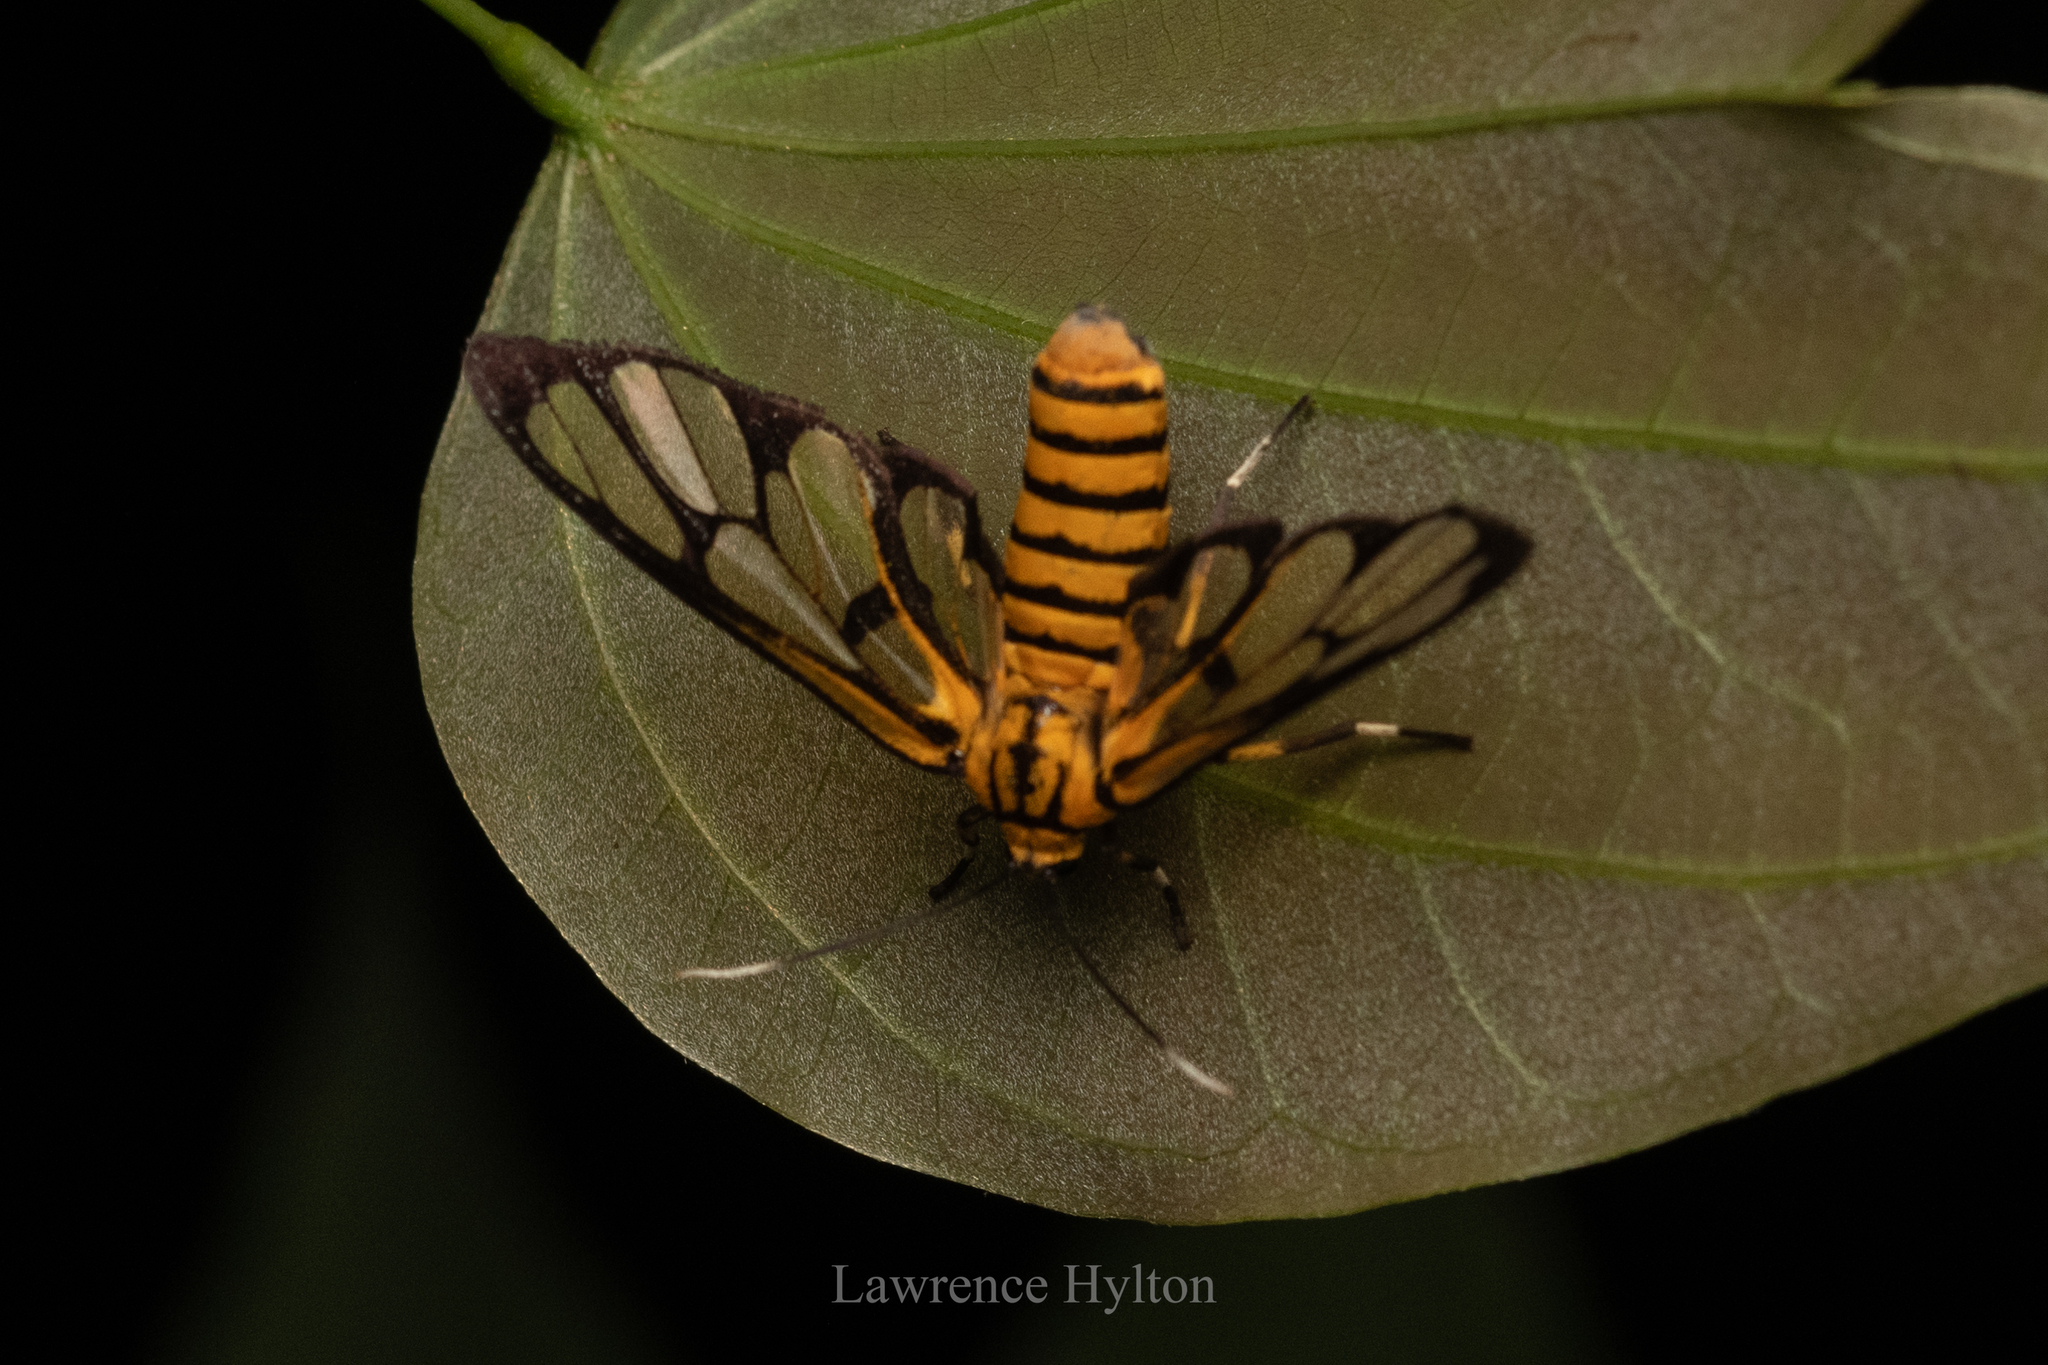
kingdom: Animalia
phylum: Arthropoda
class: Insecta
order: Lepidoptera
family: Erebidae
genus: Amata
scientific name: Amata grotei
